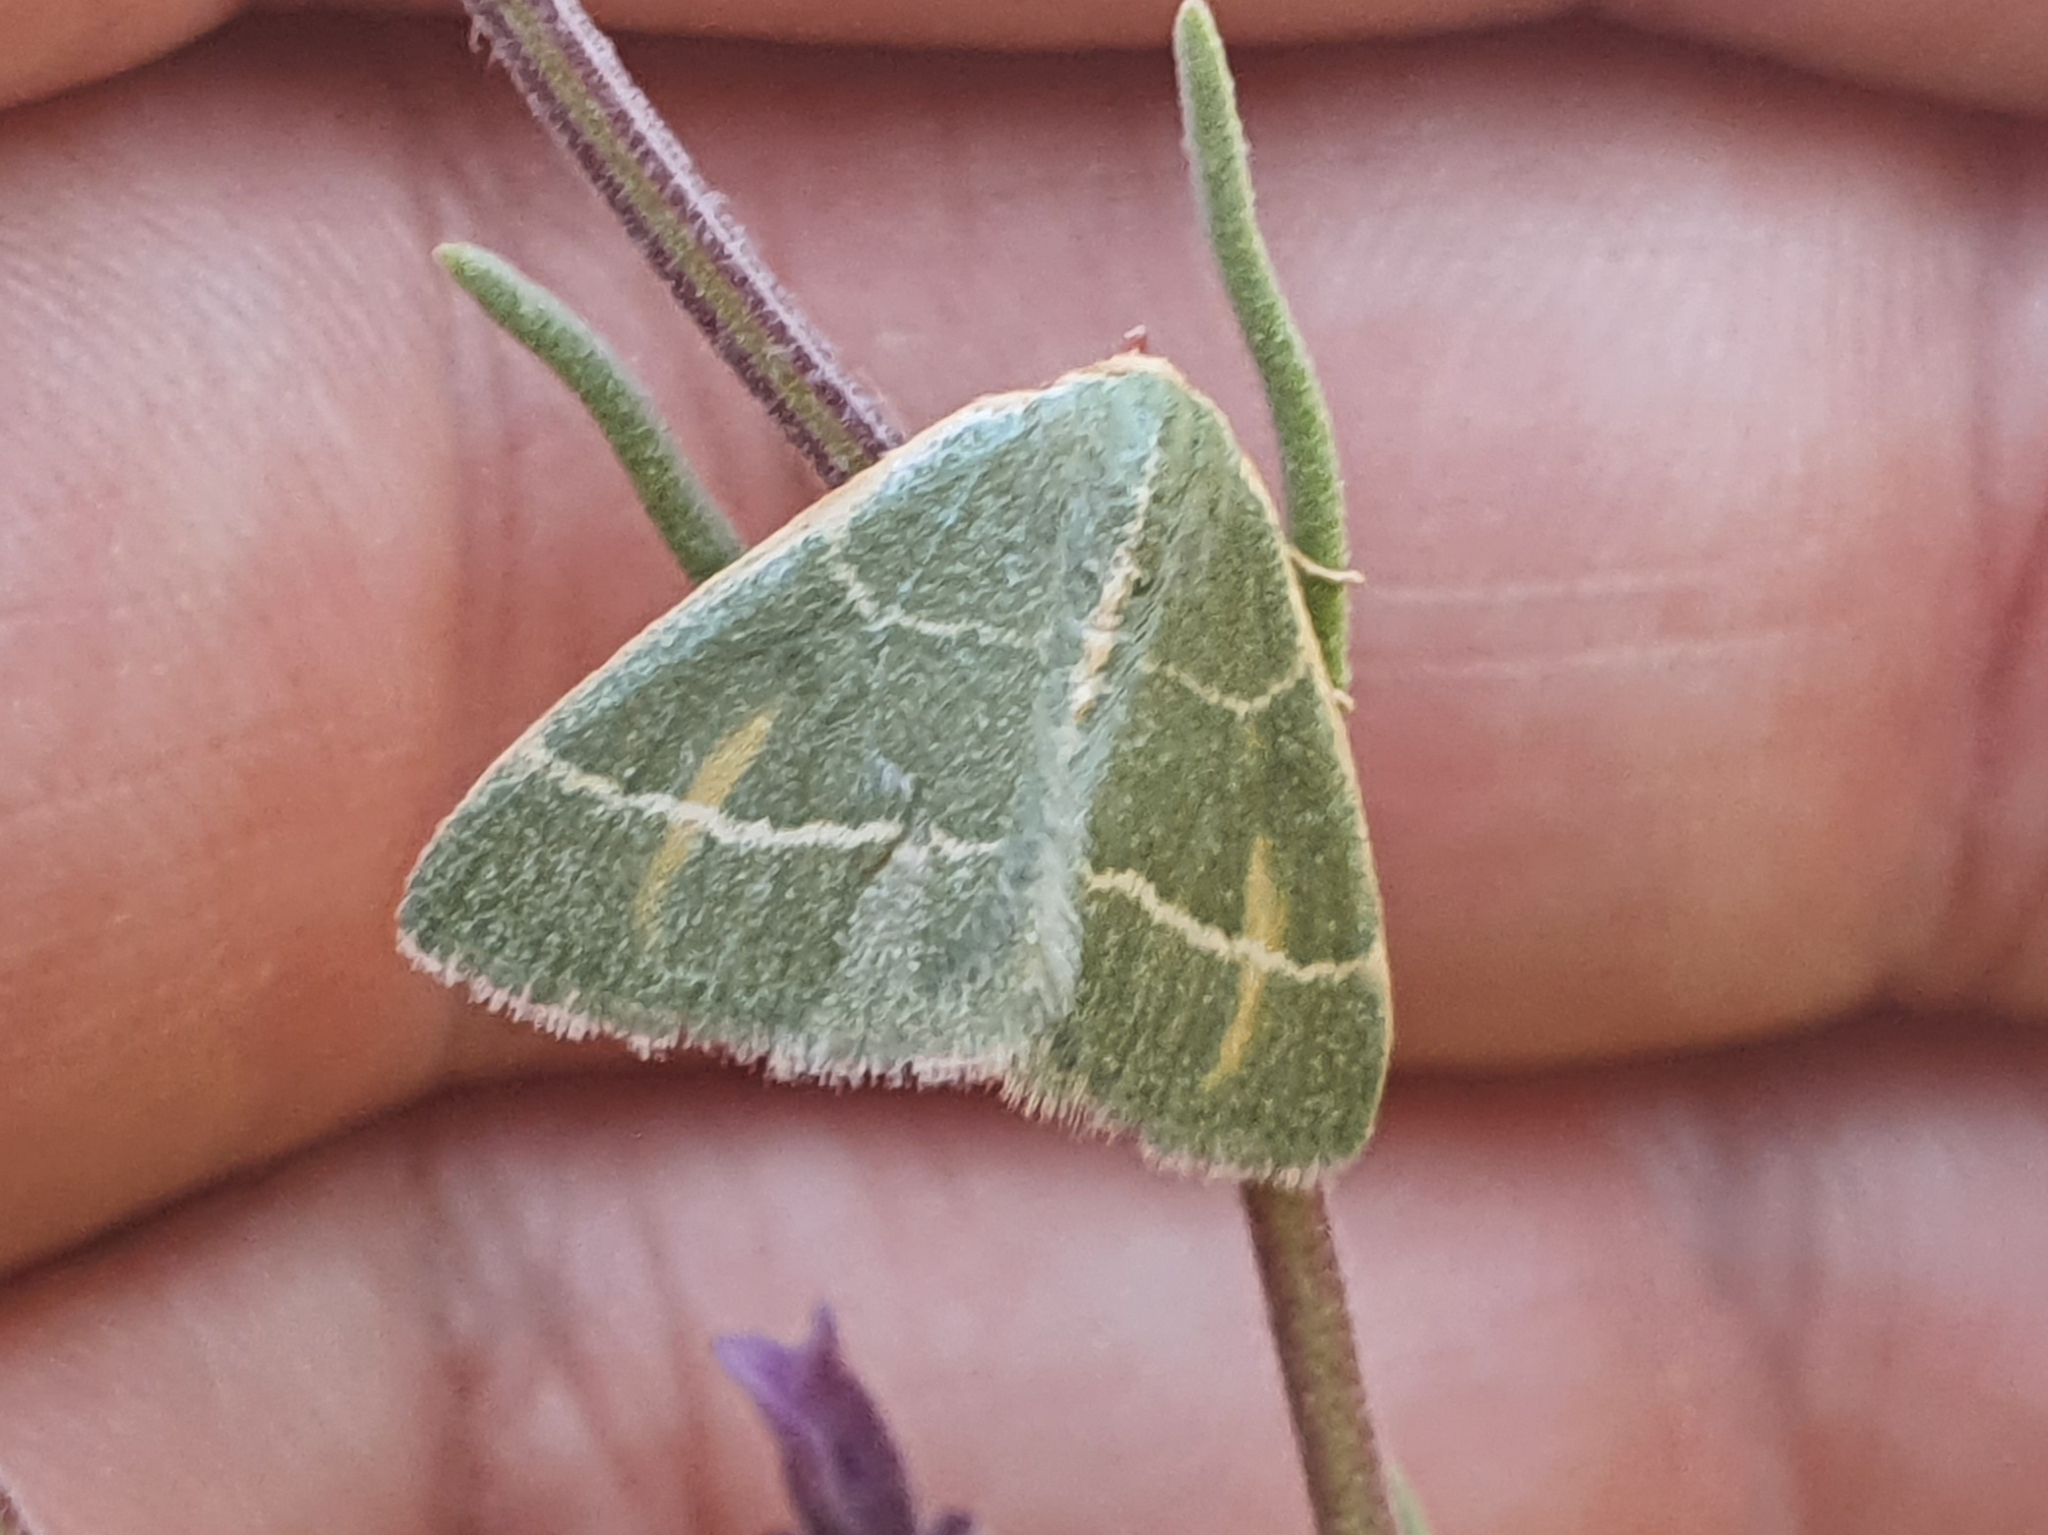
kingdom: Animalia
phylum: Arthropoda
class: Insecta
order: Lepidoptera
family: Geometridae
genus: Microloxia
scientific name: Microloxia herbaria
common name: Herb emerald
